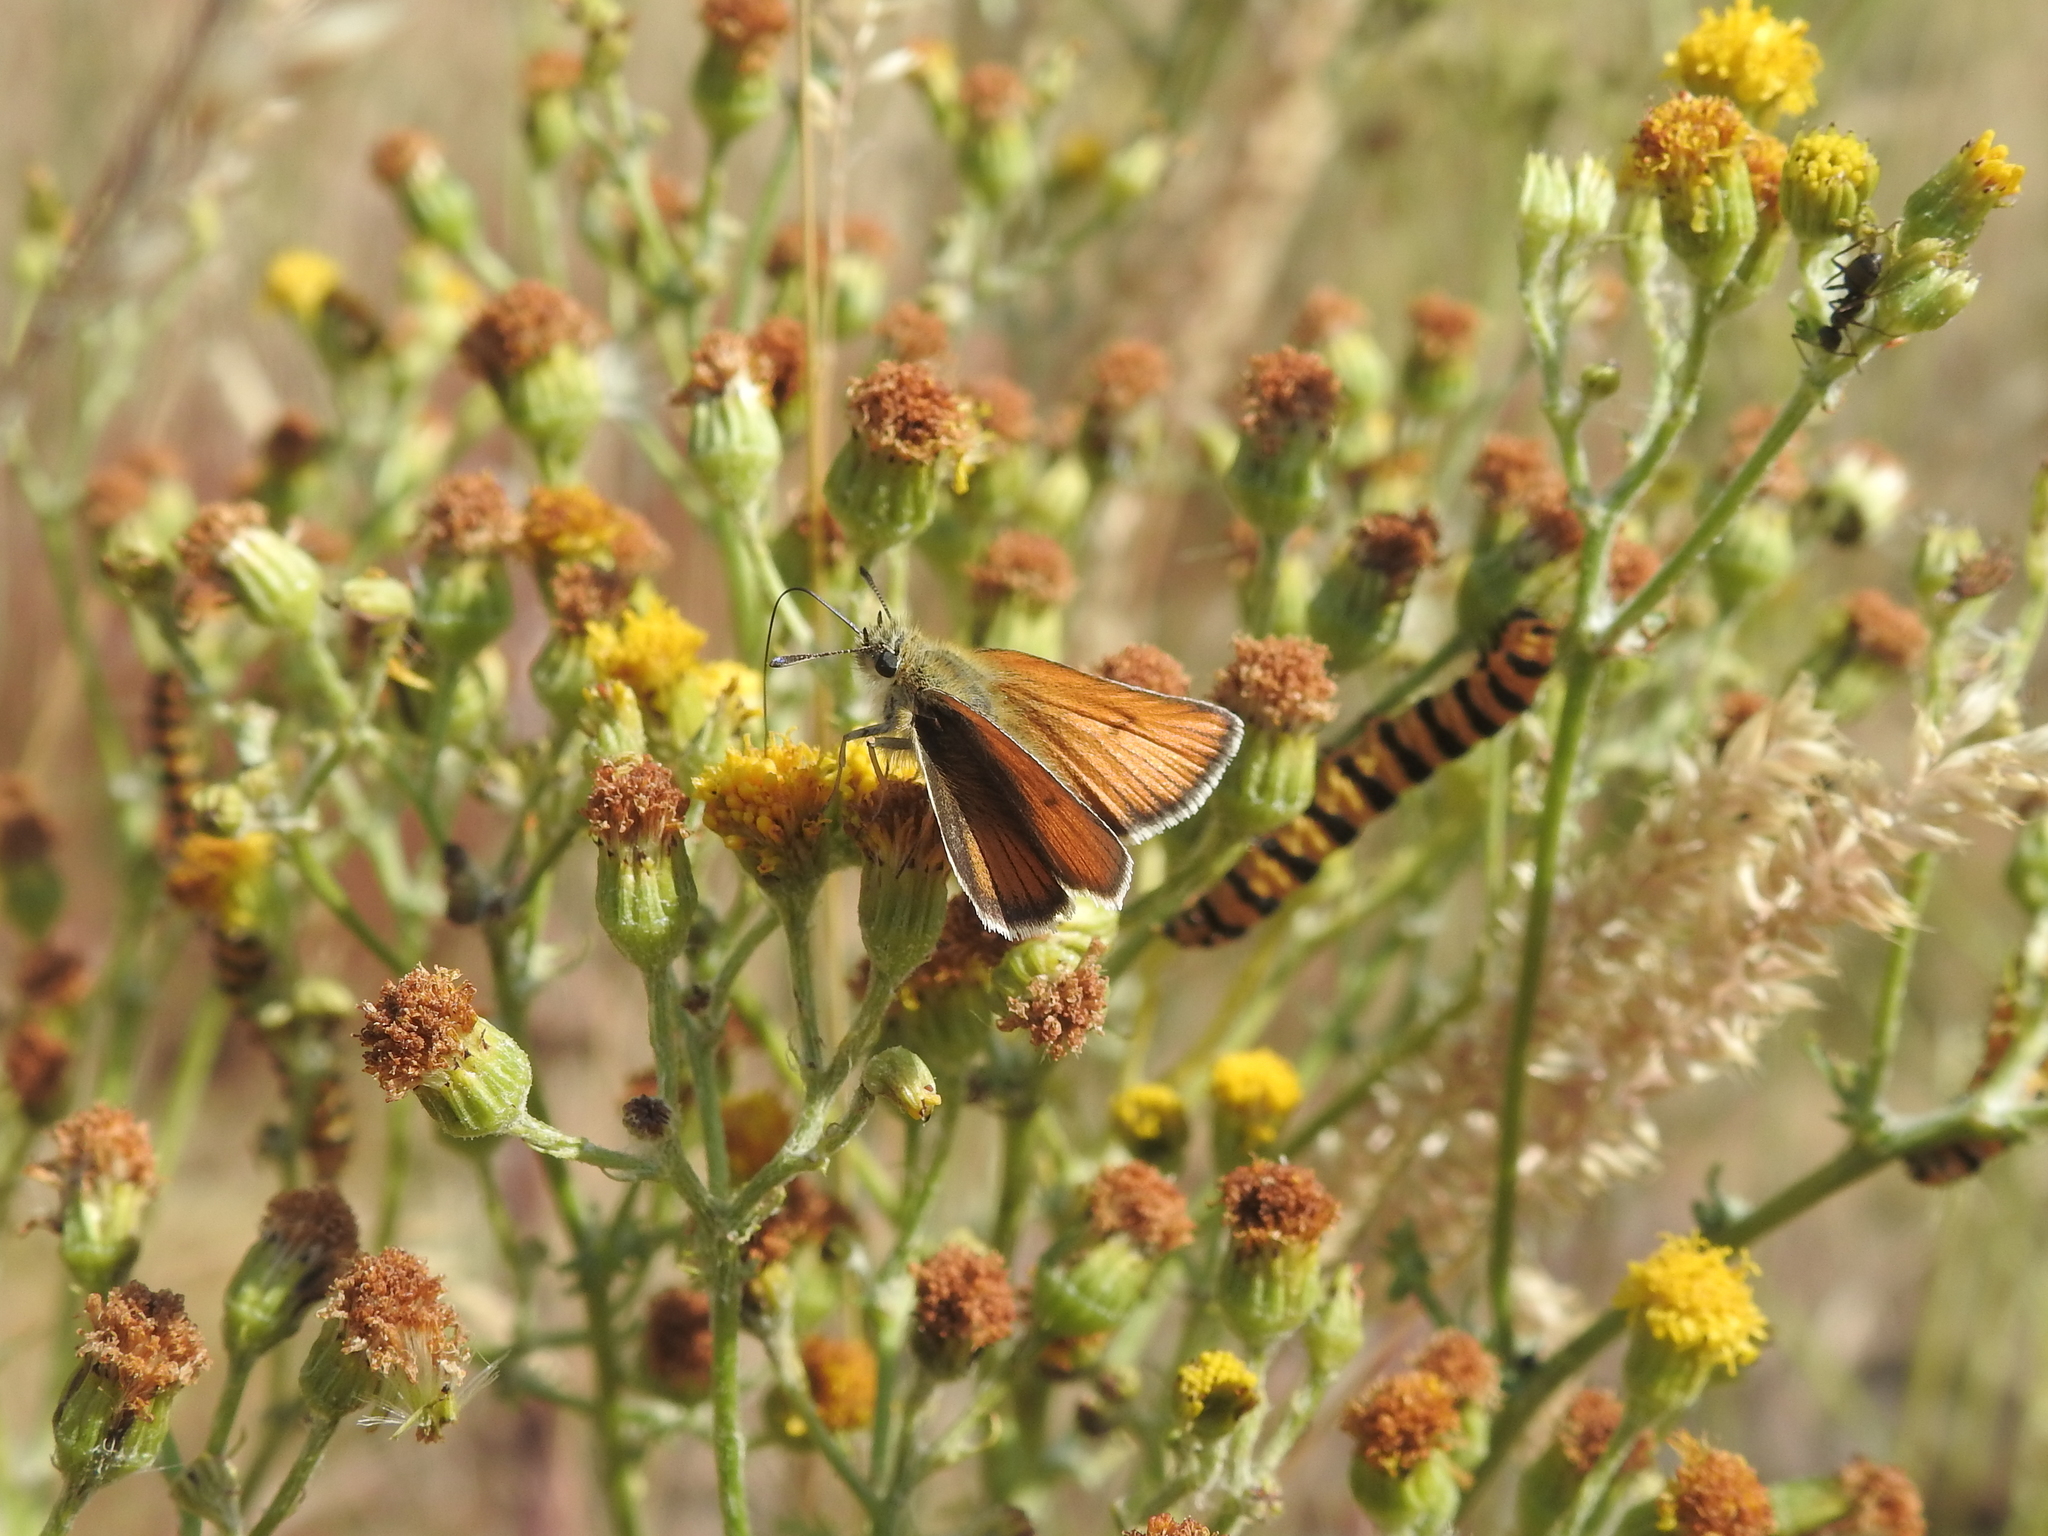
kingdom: Animalia
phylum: Arthropoda
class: Insecta
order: Lepidoptera
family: Hesperiidae
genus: Thymelicus
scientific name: Thymelicus lineola
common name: Essex skipper
